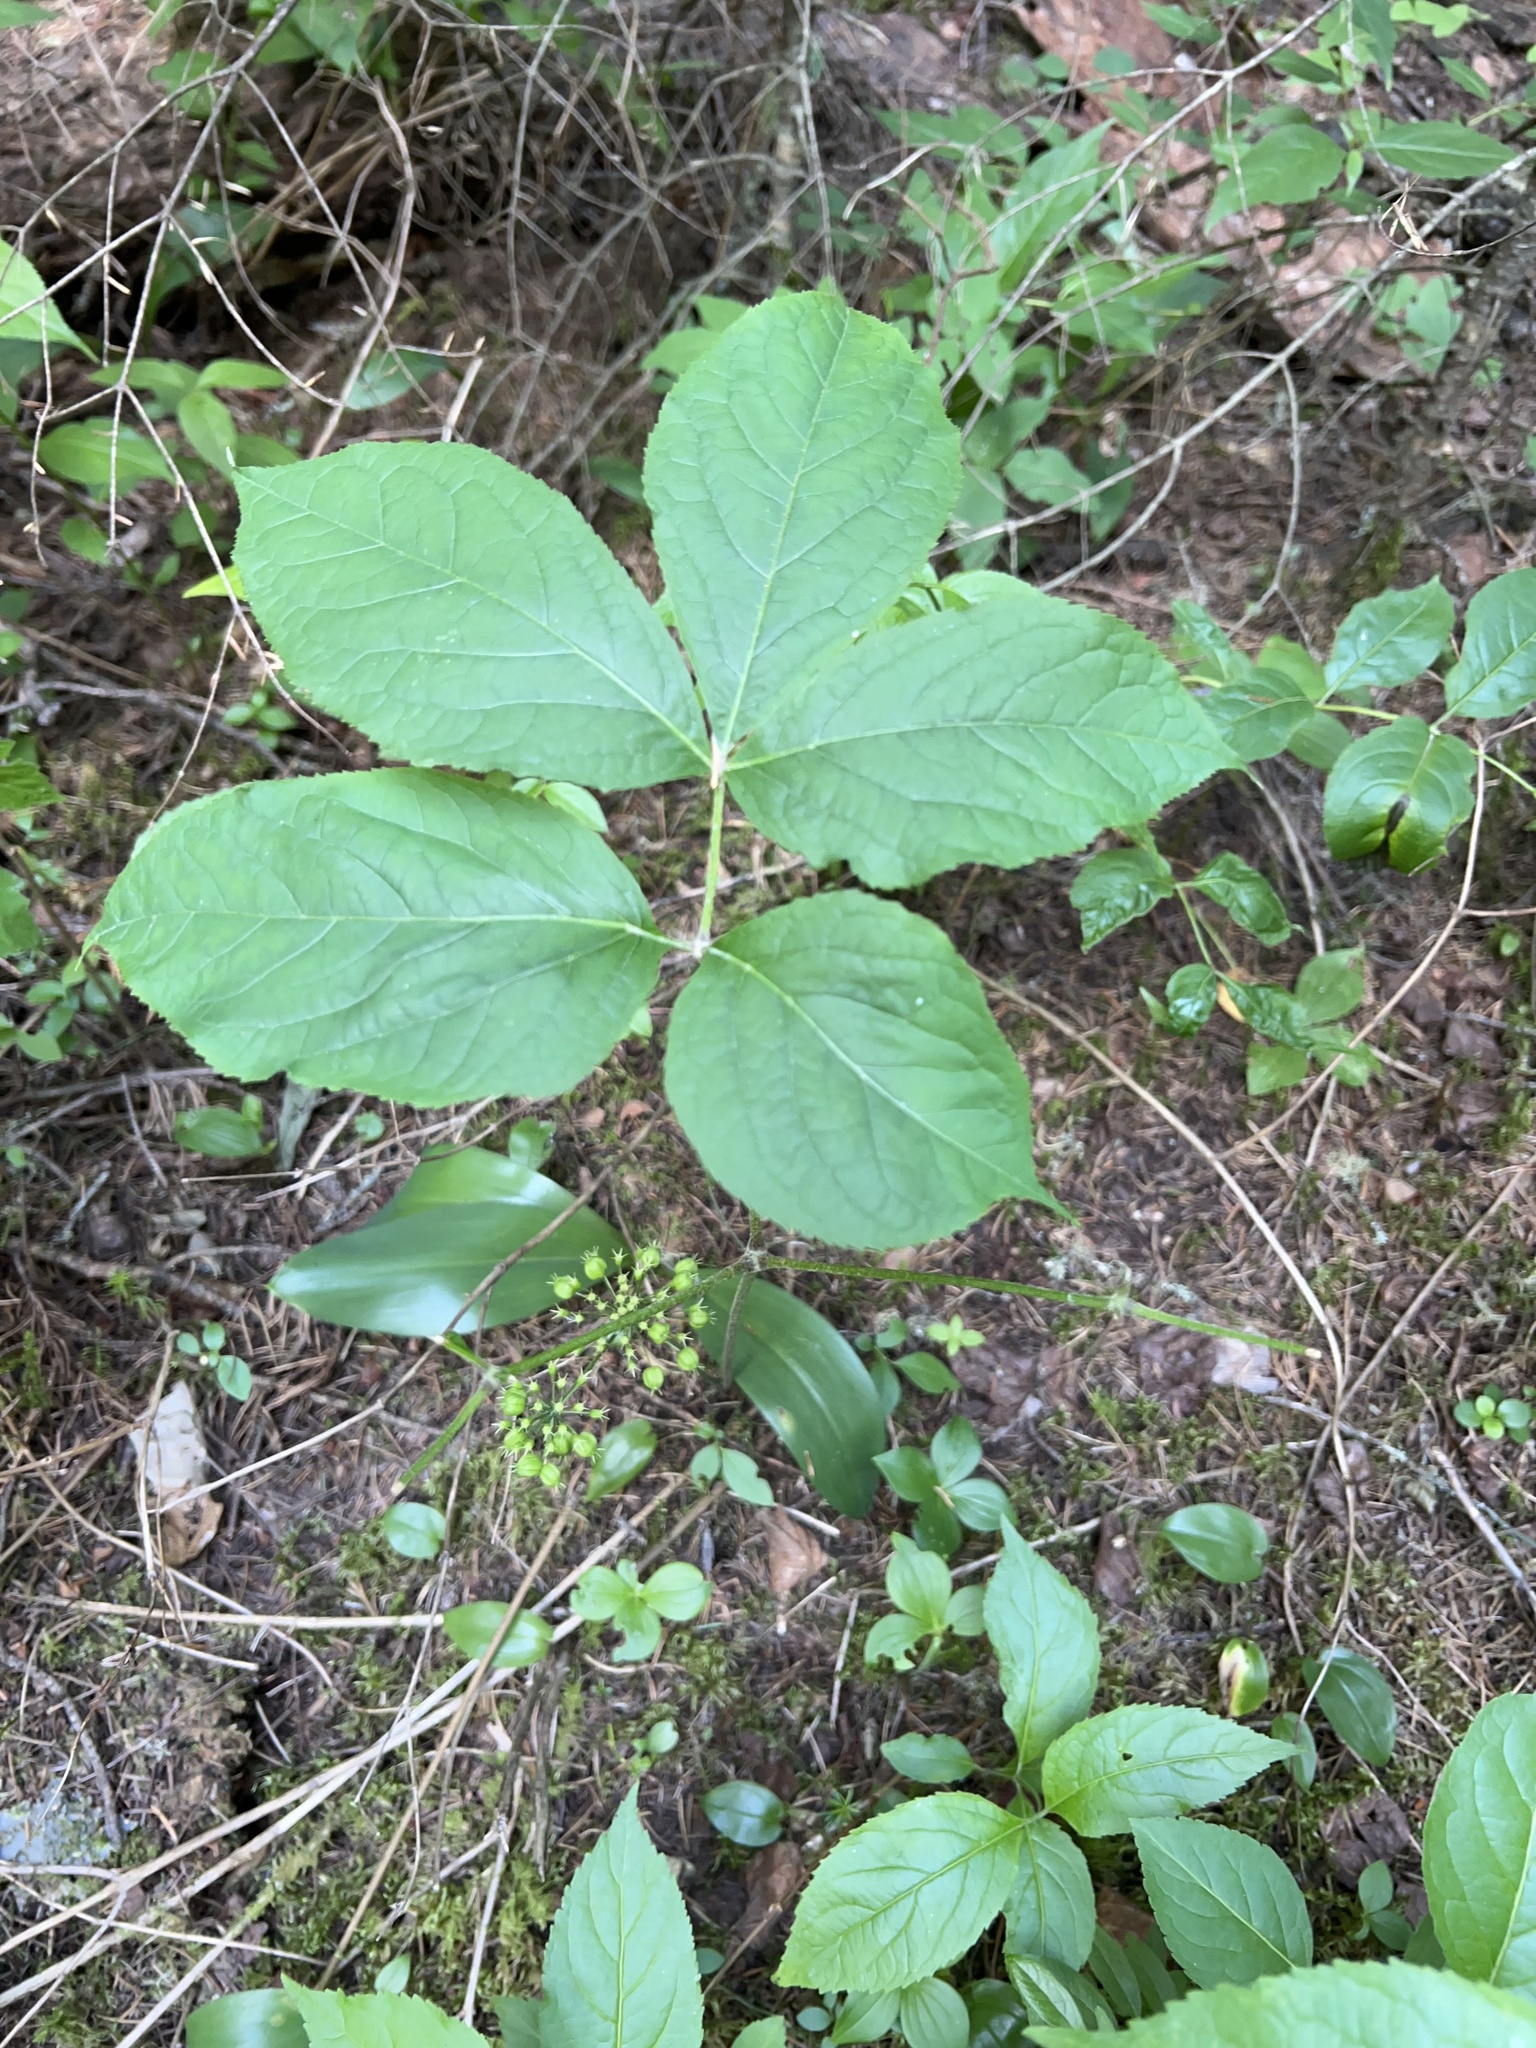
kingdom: Plantae
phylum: Tracheophyta
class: Magnoliopsida
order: Apiales
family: Araliaceae
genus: Aralia
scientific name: Aralia nudicaulis
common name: Wild sarsaparilla
